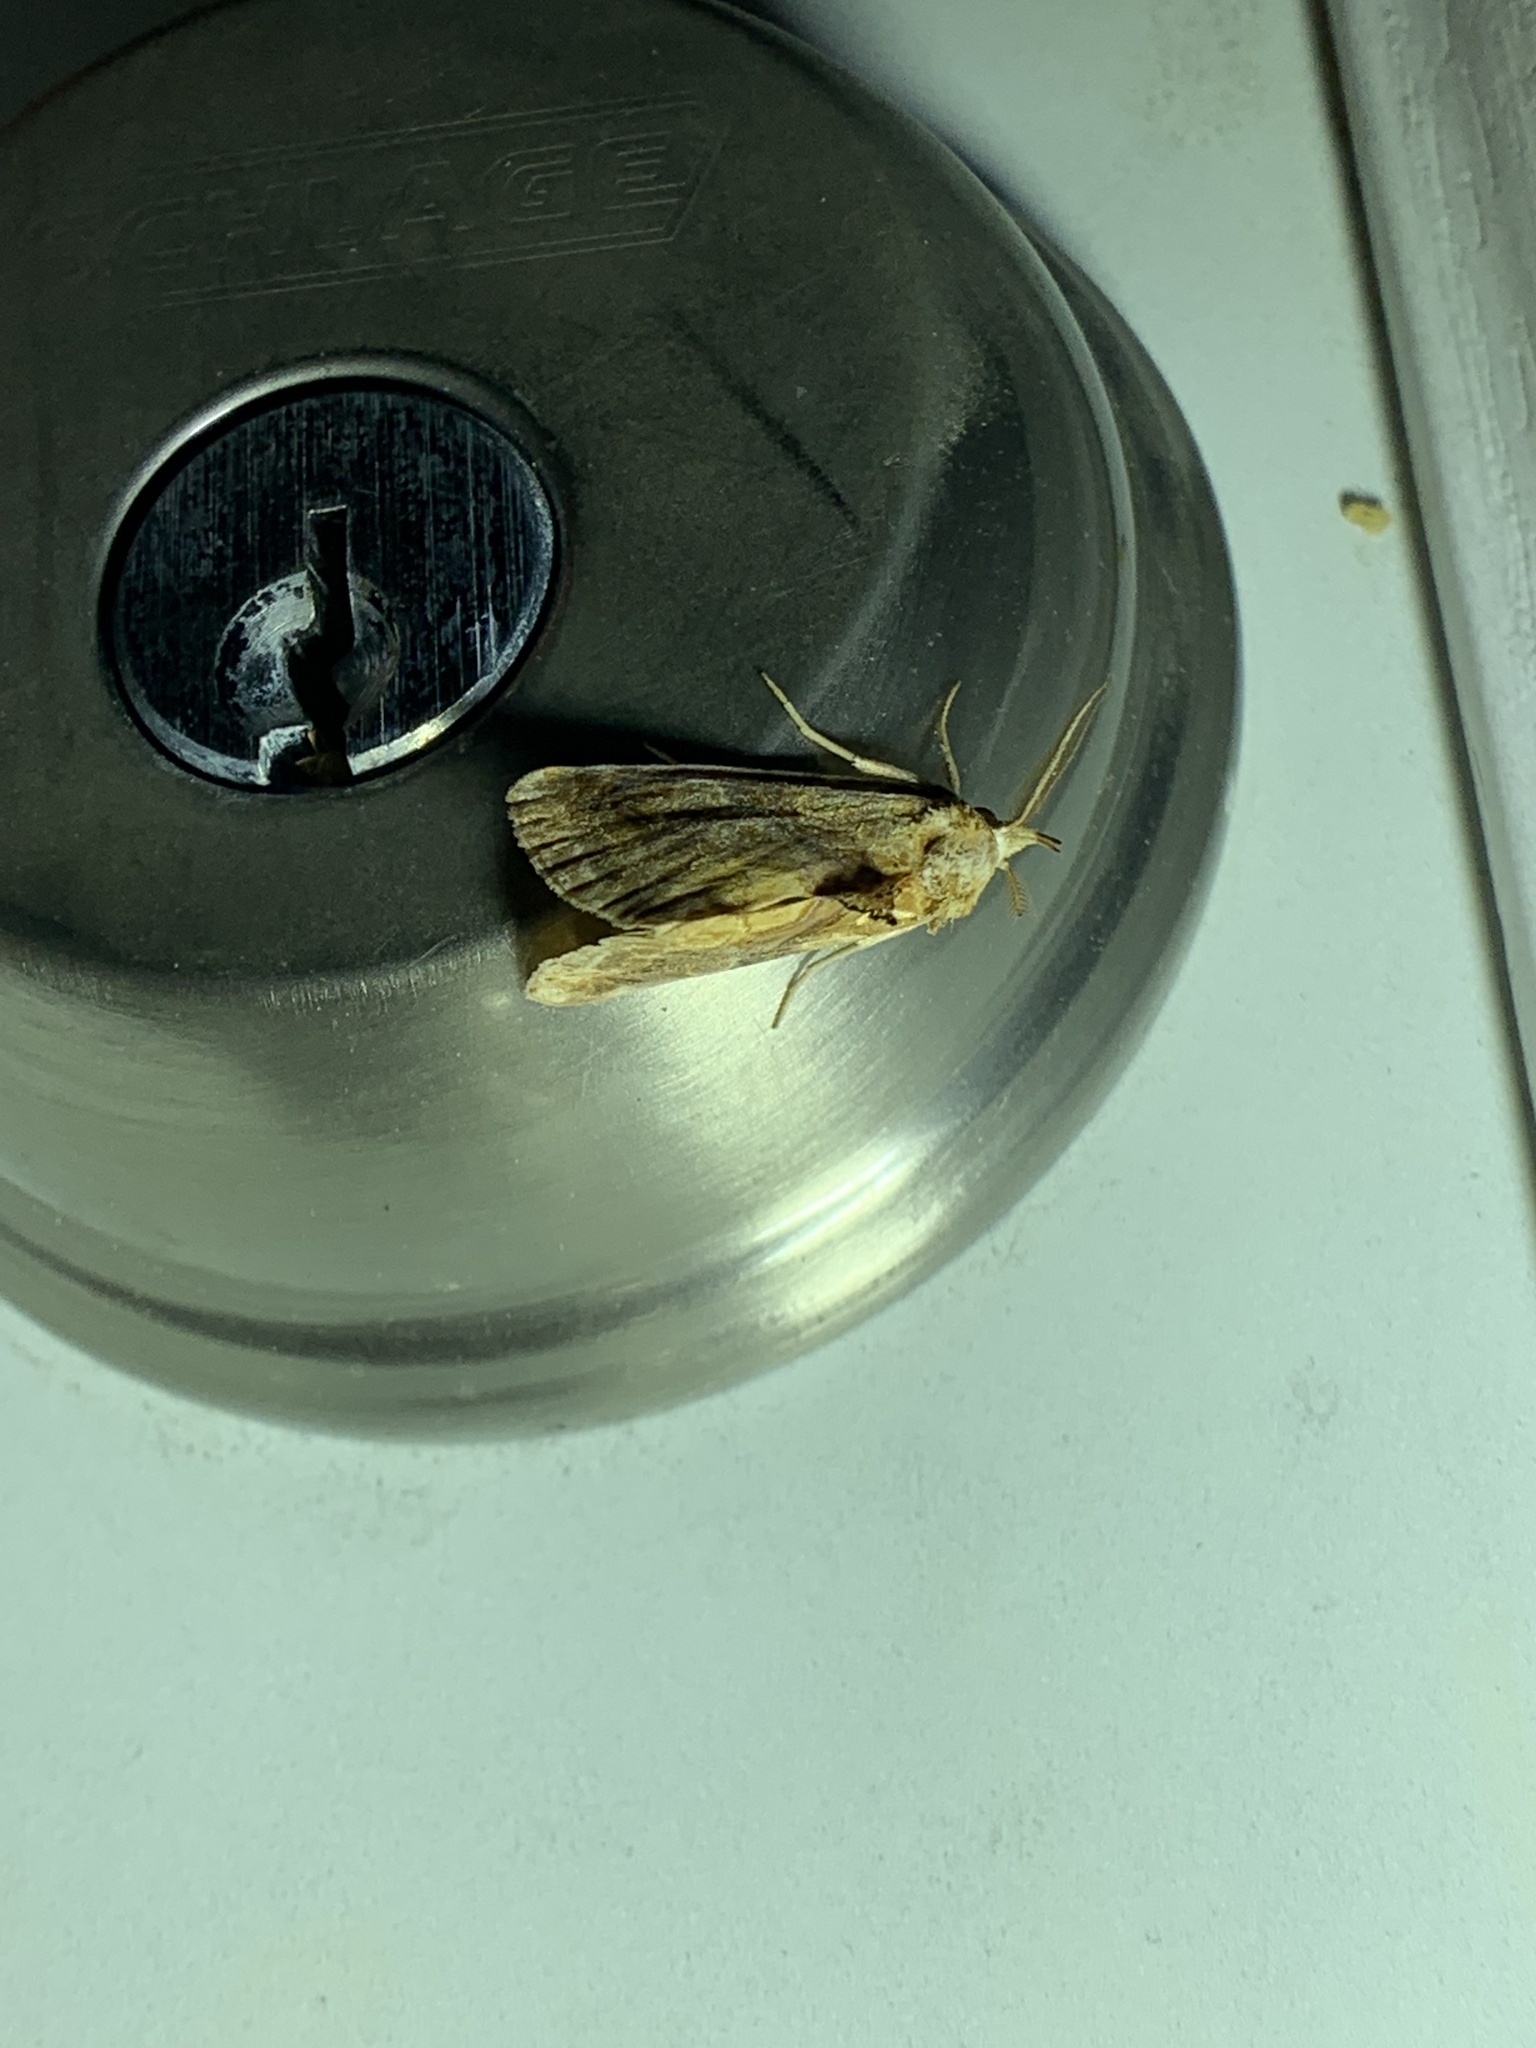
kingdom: Animalia
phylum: Arthropoda
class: Insecta
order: Lepidoptera
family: Erebidae
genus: Plusiodonta
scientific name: Plusiodonta compressipalpis
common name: Moonseed moth
